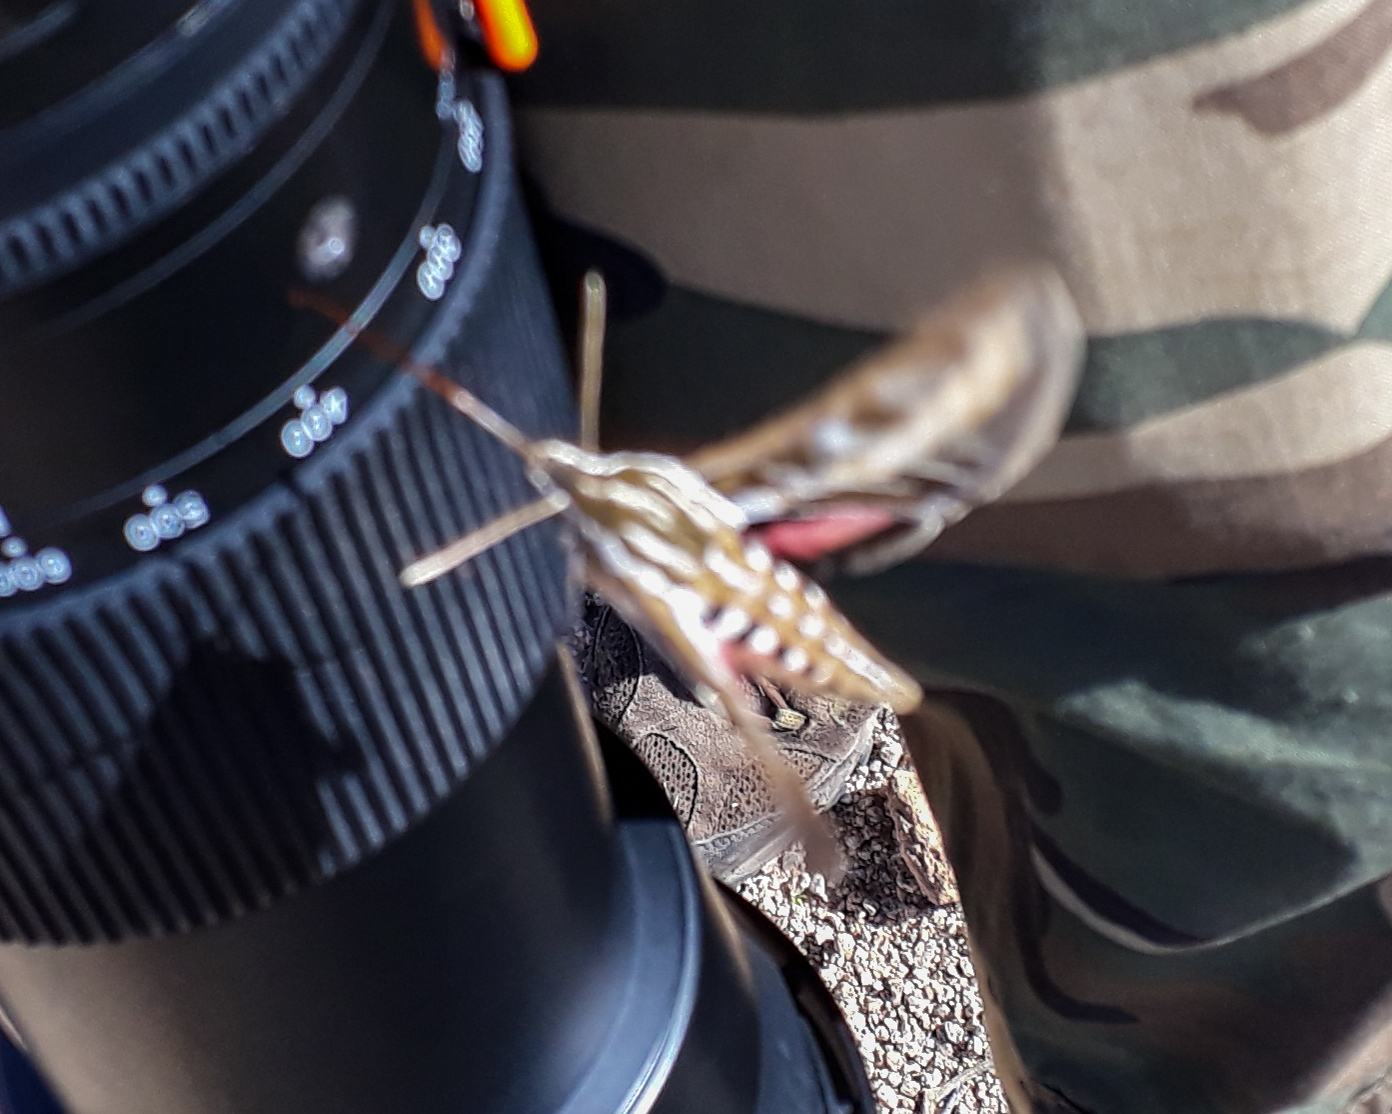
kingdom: Animalia
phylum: Arthropoda
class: Insecta
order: Lepidoptera
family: Sphingidae
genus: Hyles
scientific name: Hyles lineata
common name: White-lined sphinx
